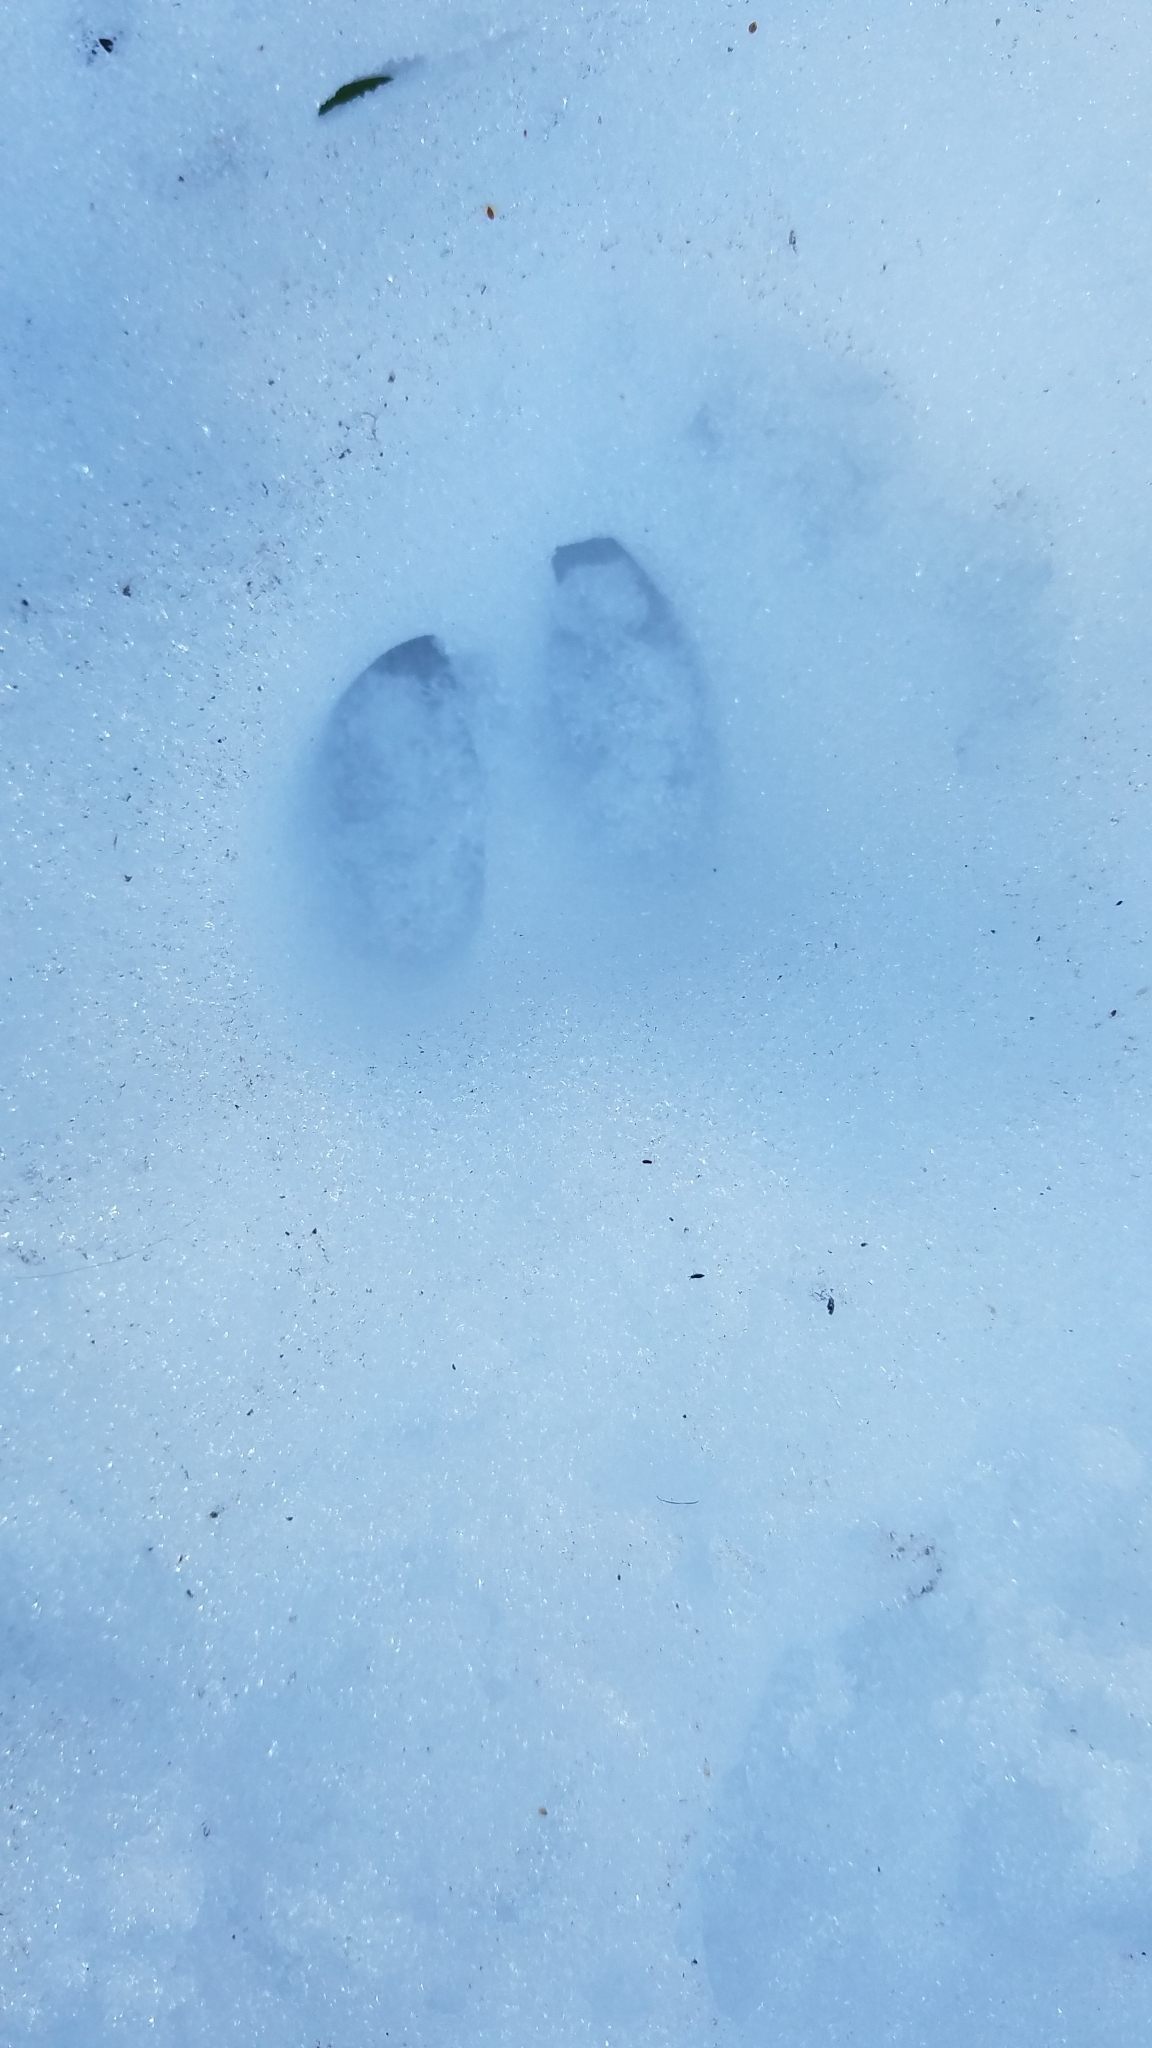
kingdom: Animalia
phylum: Chordata
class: Mammalia
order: Artiodactyla
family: Cervidae
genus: Odocoileus
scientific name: Odocoileus virginianus
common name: White-tailed deer
